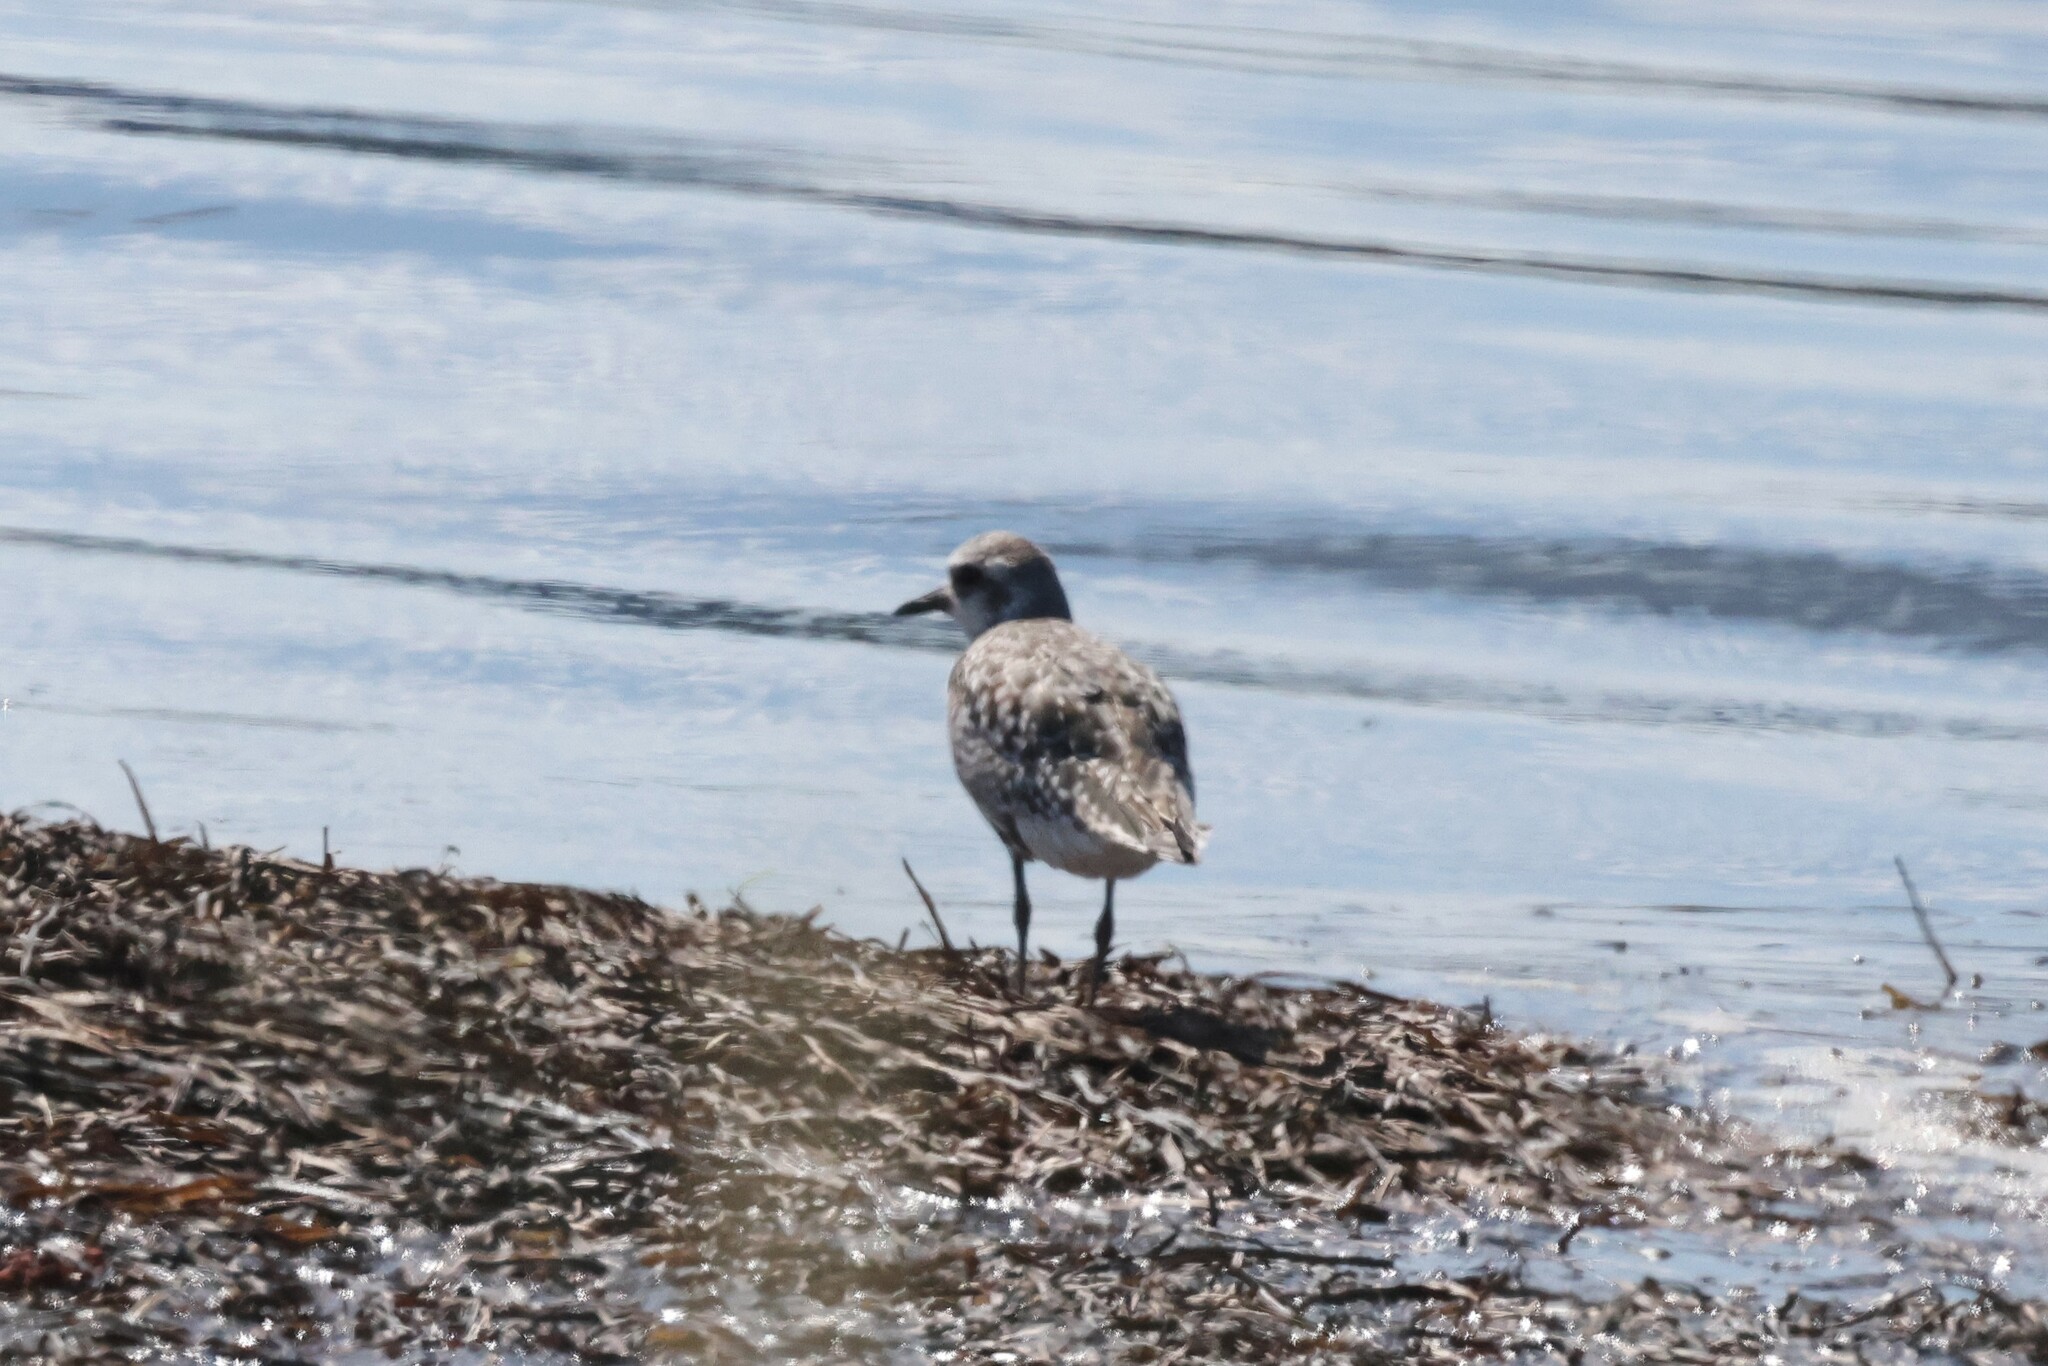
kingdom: Animalia
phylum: Chordata
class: Aves
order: Charadriiformes
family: Charadriidae
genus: Pluvialis
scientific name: Pluvialis squatarola
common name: Grey plover
